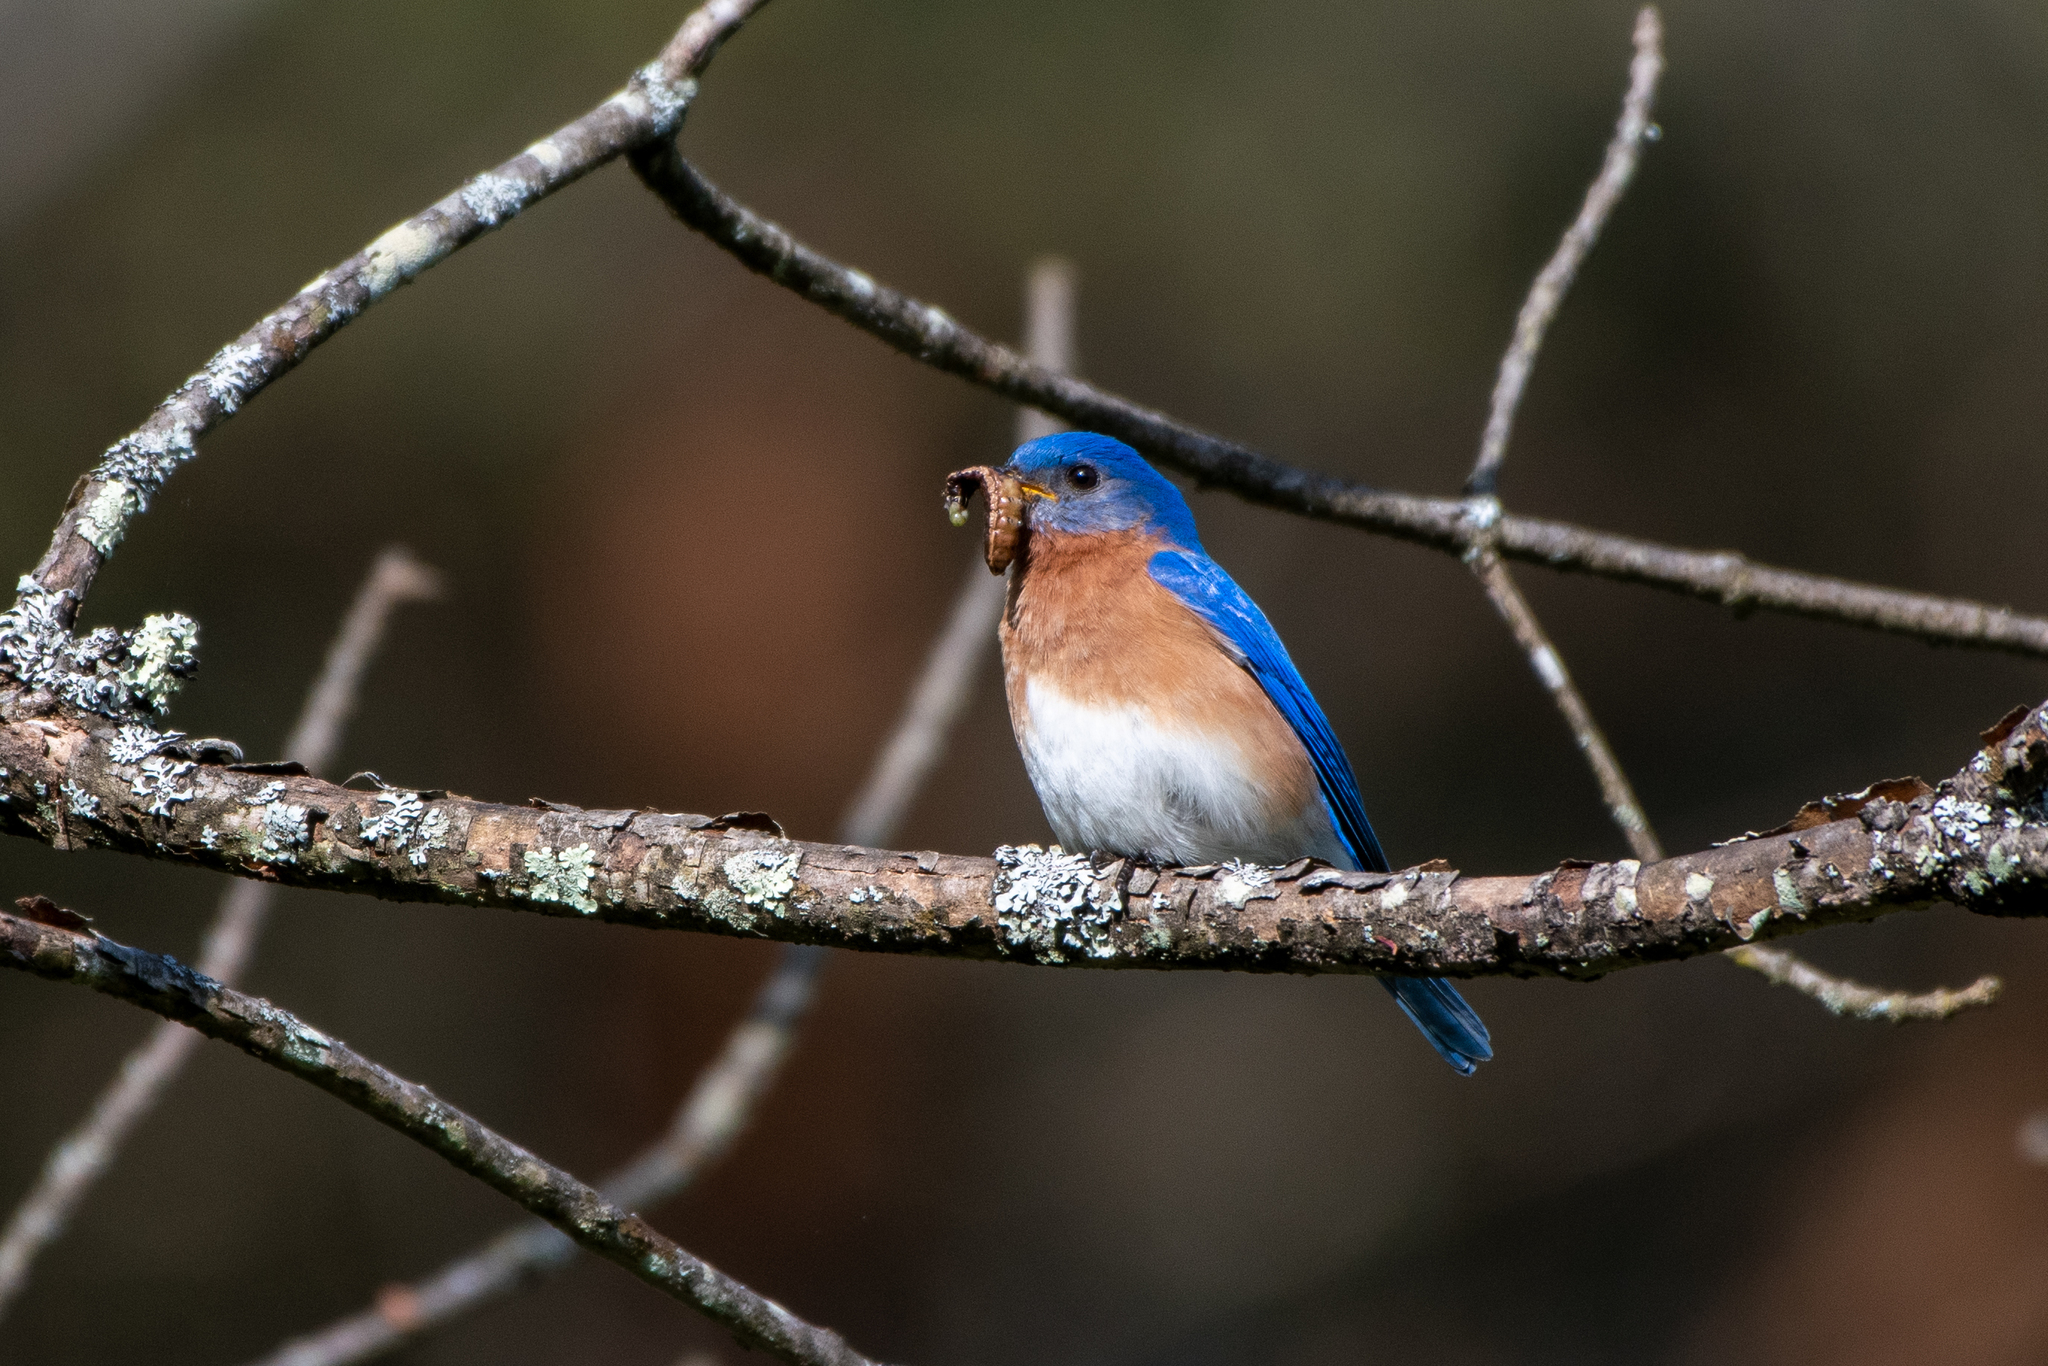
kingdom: Animalia
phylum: Chordata
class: Aves
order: Passeriformes
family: Turdidae
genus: Sialia
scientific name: Sialia sialis
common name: Eastern bluebird
